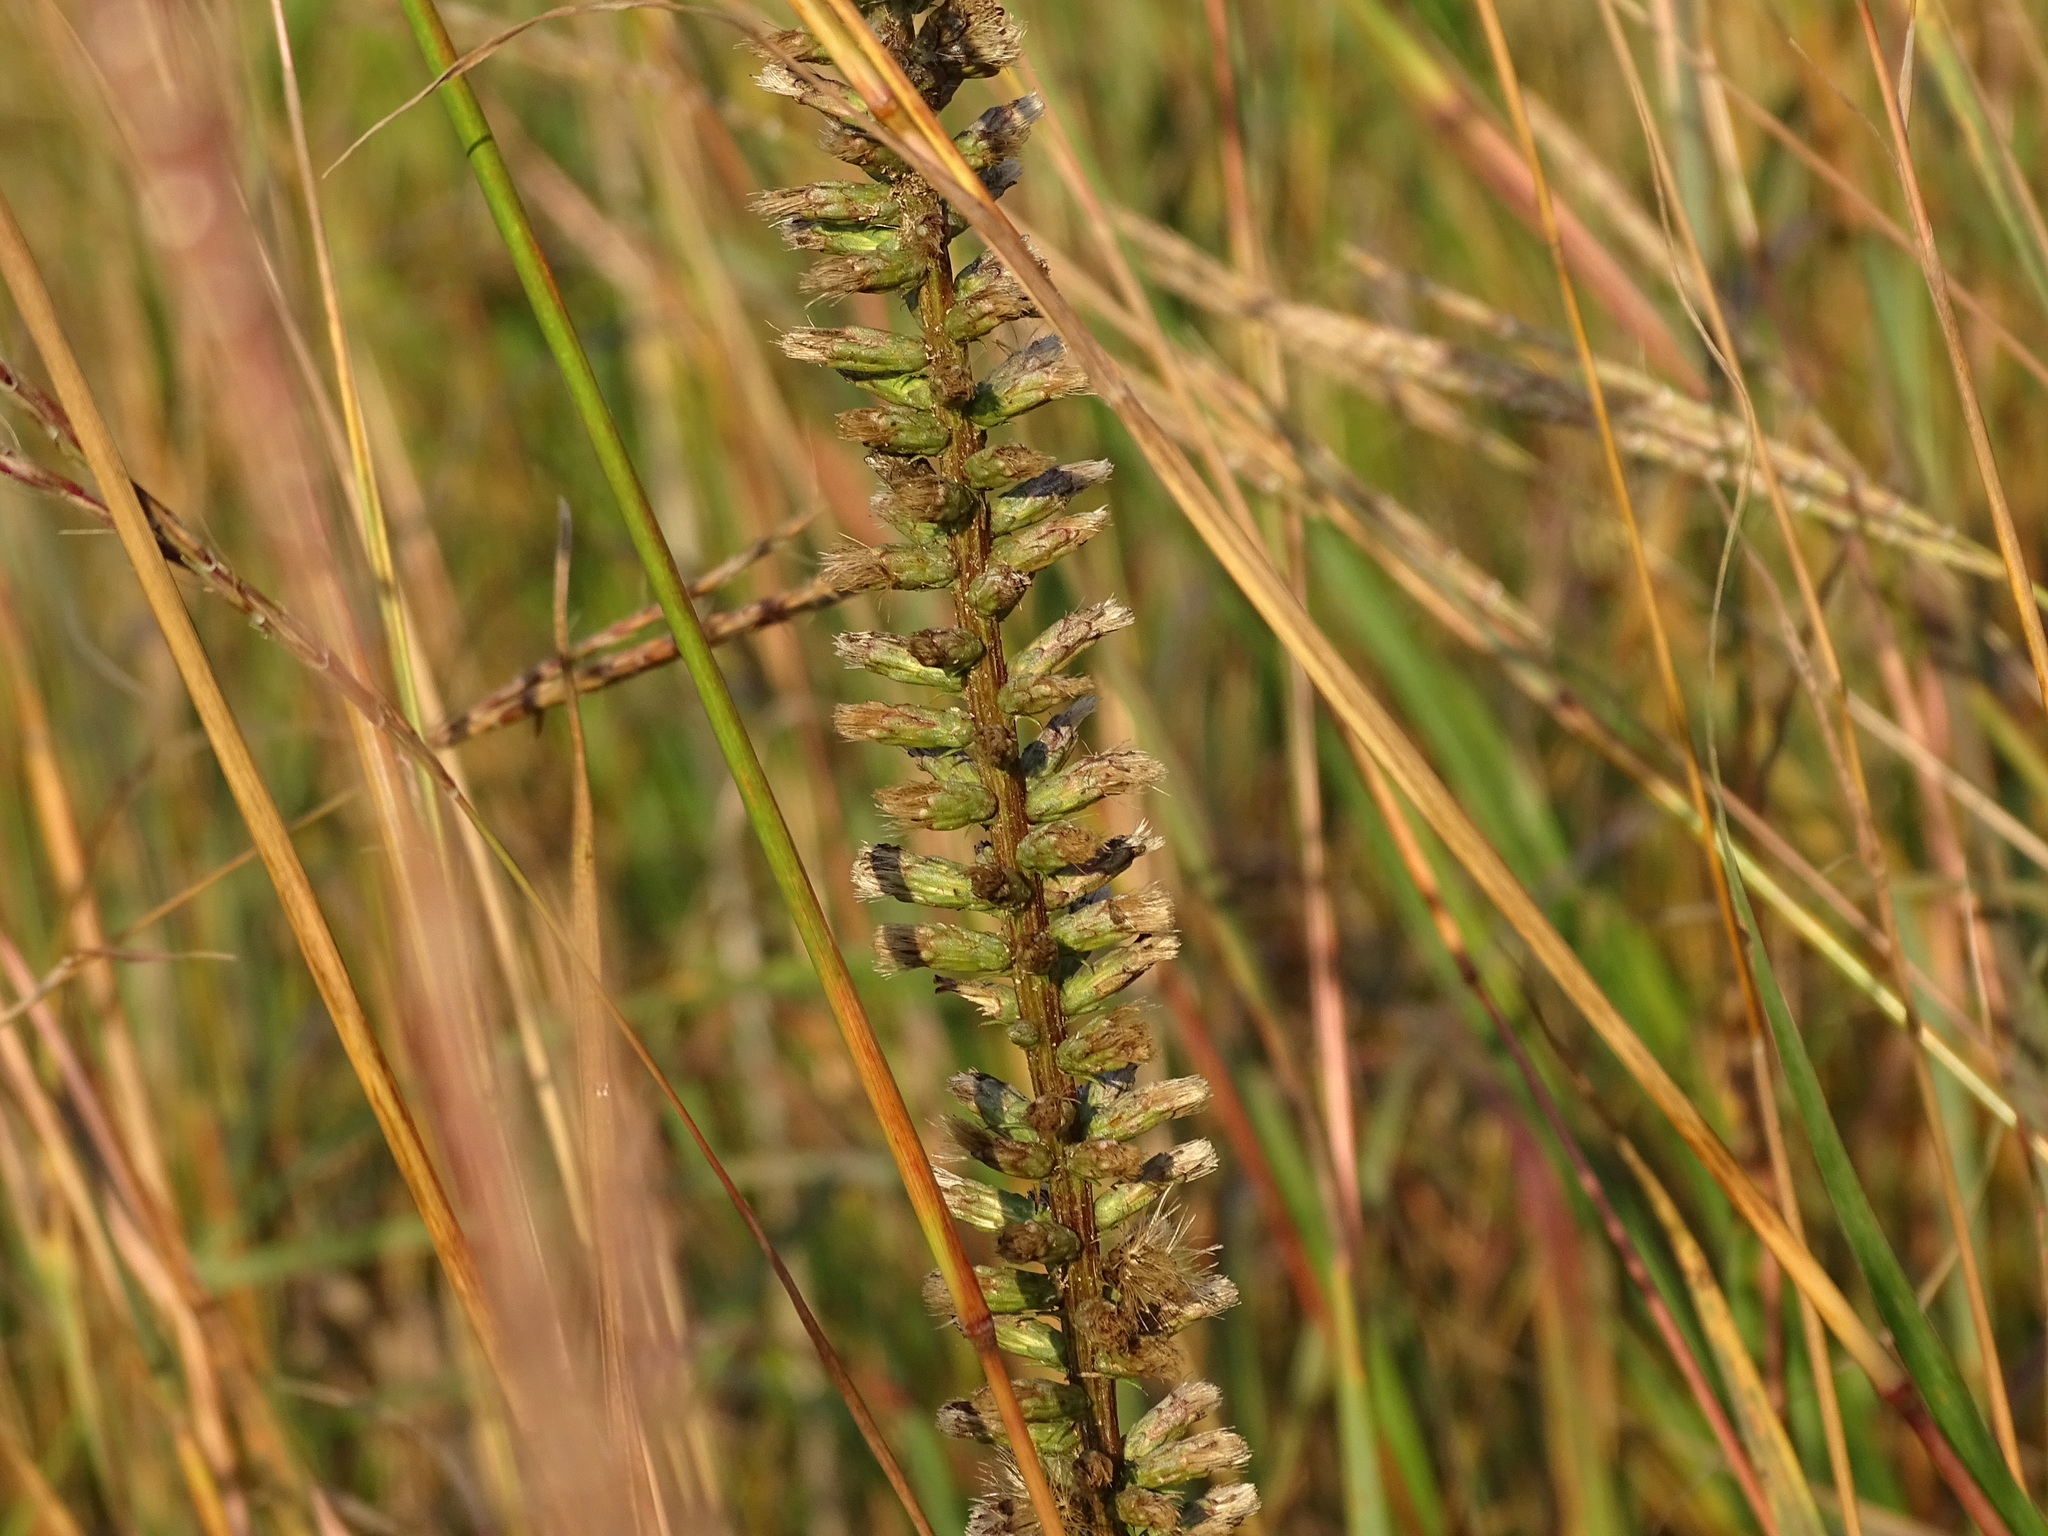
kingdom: Plantae
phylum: Tracheophyta
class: Magnoliopsida
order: Asterales
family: Asteraceae
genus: Liatris
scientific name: Liatris spicata
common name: Florist gayfeather
